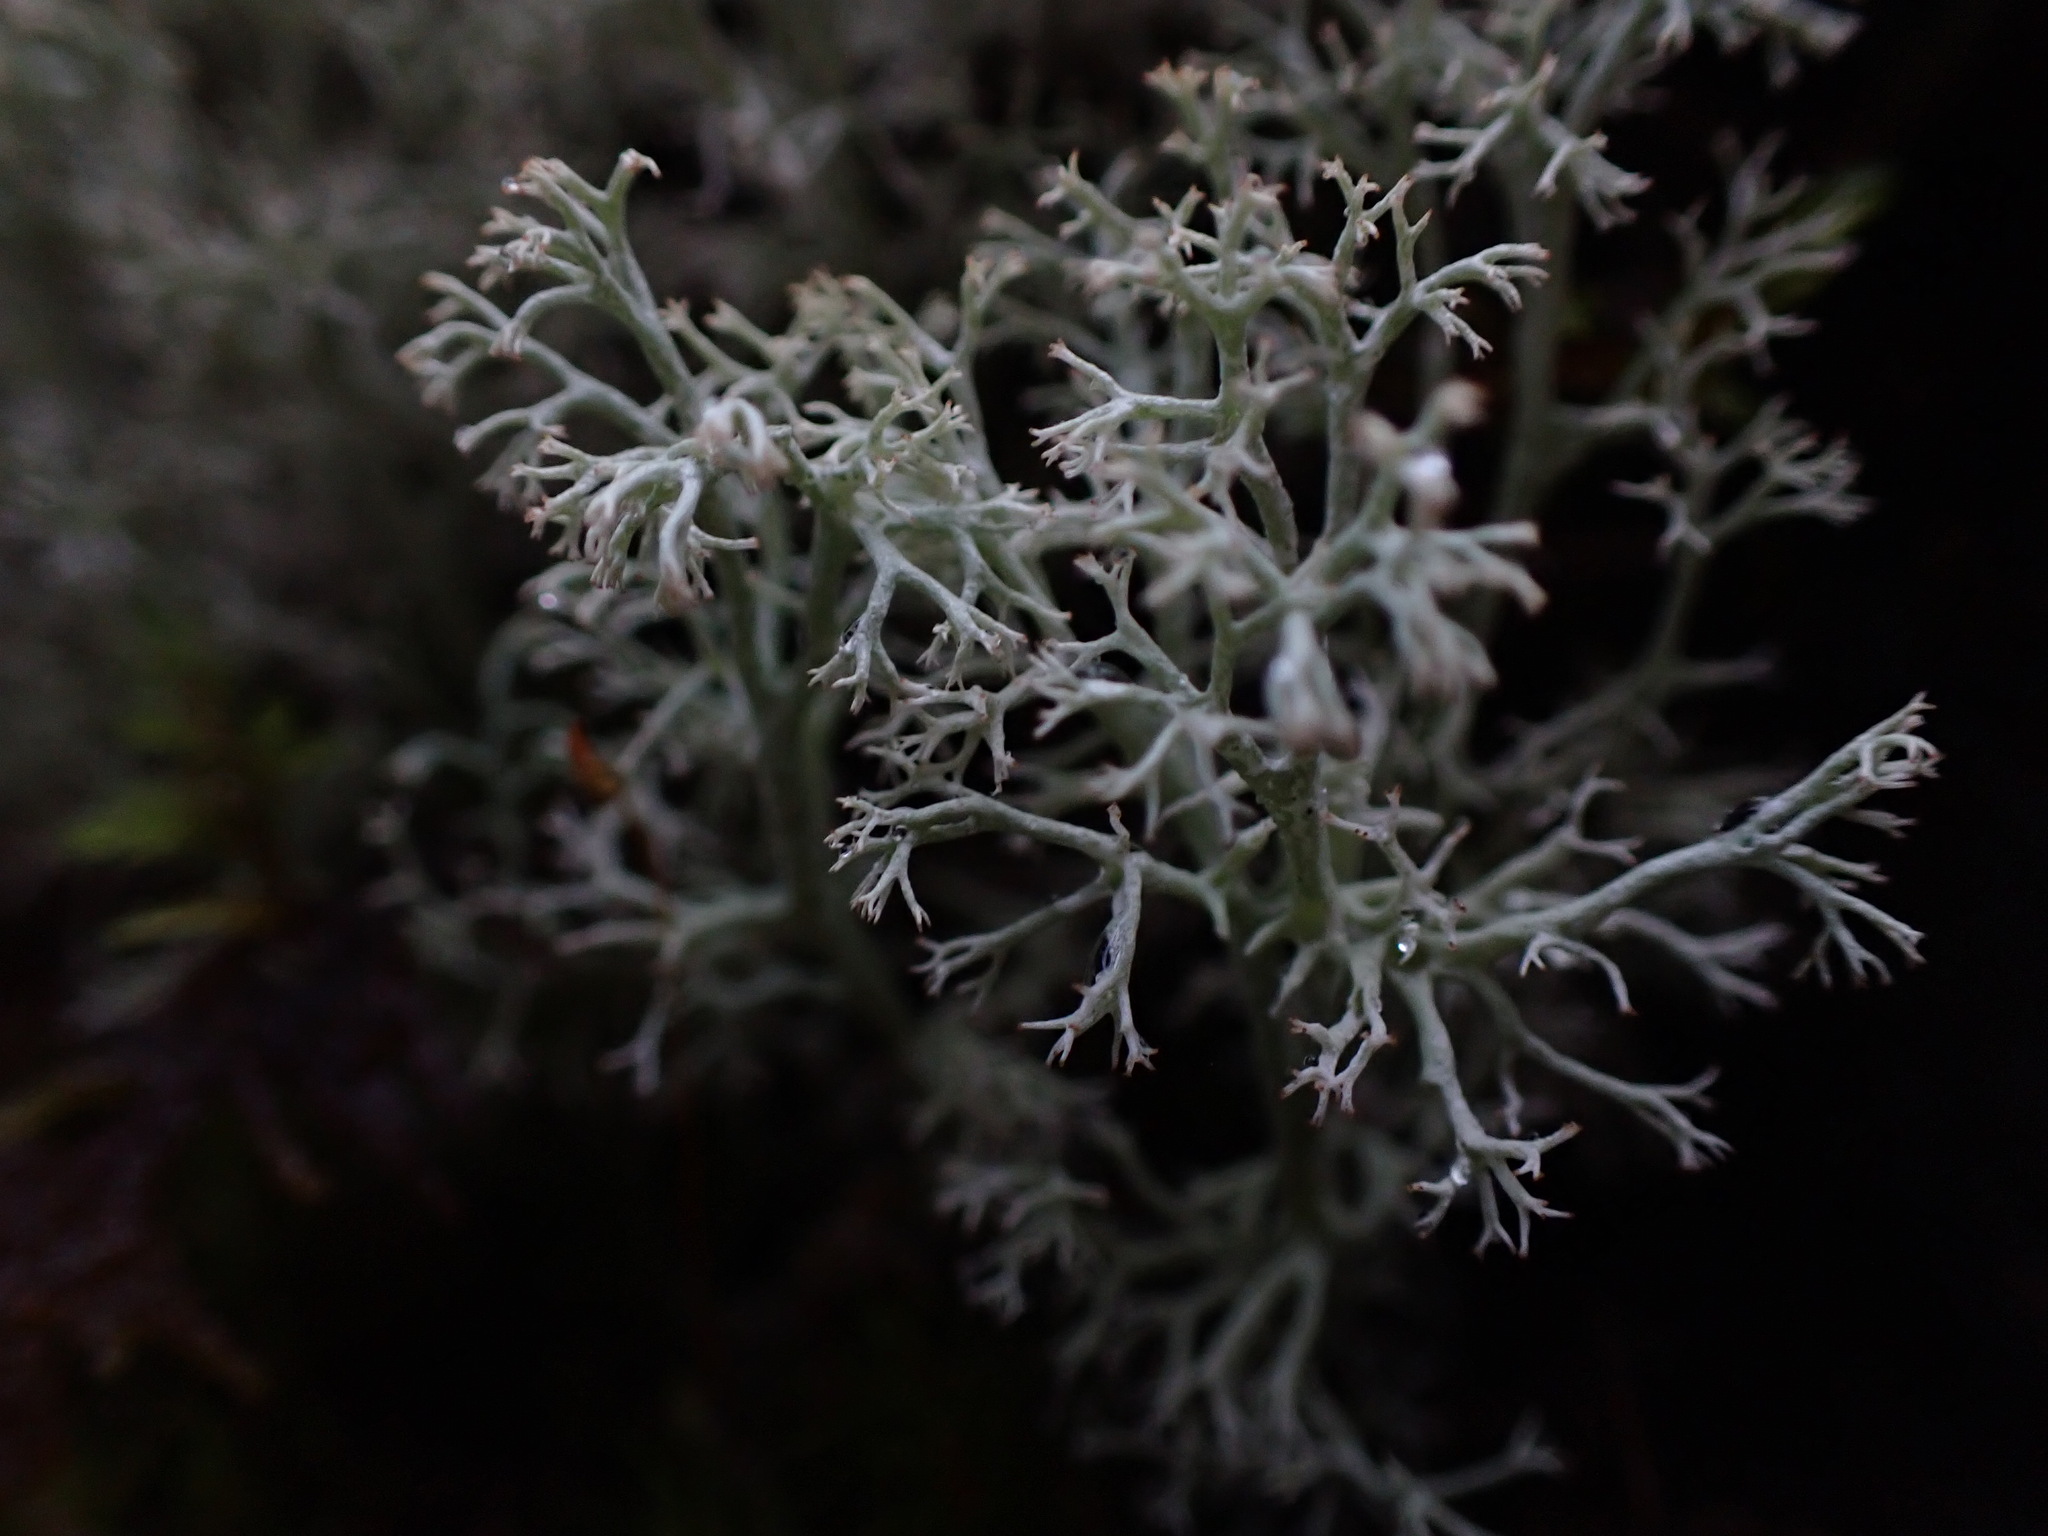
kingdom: Fungi
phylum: Ascomycota
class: Lecanoromycetes
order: Lecanorales
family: Cladoniaceae
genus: Cladonia
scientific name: Cladonia rangiferina
